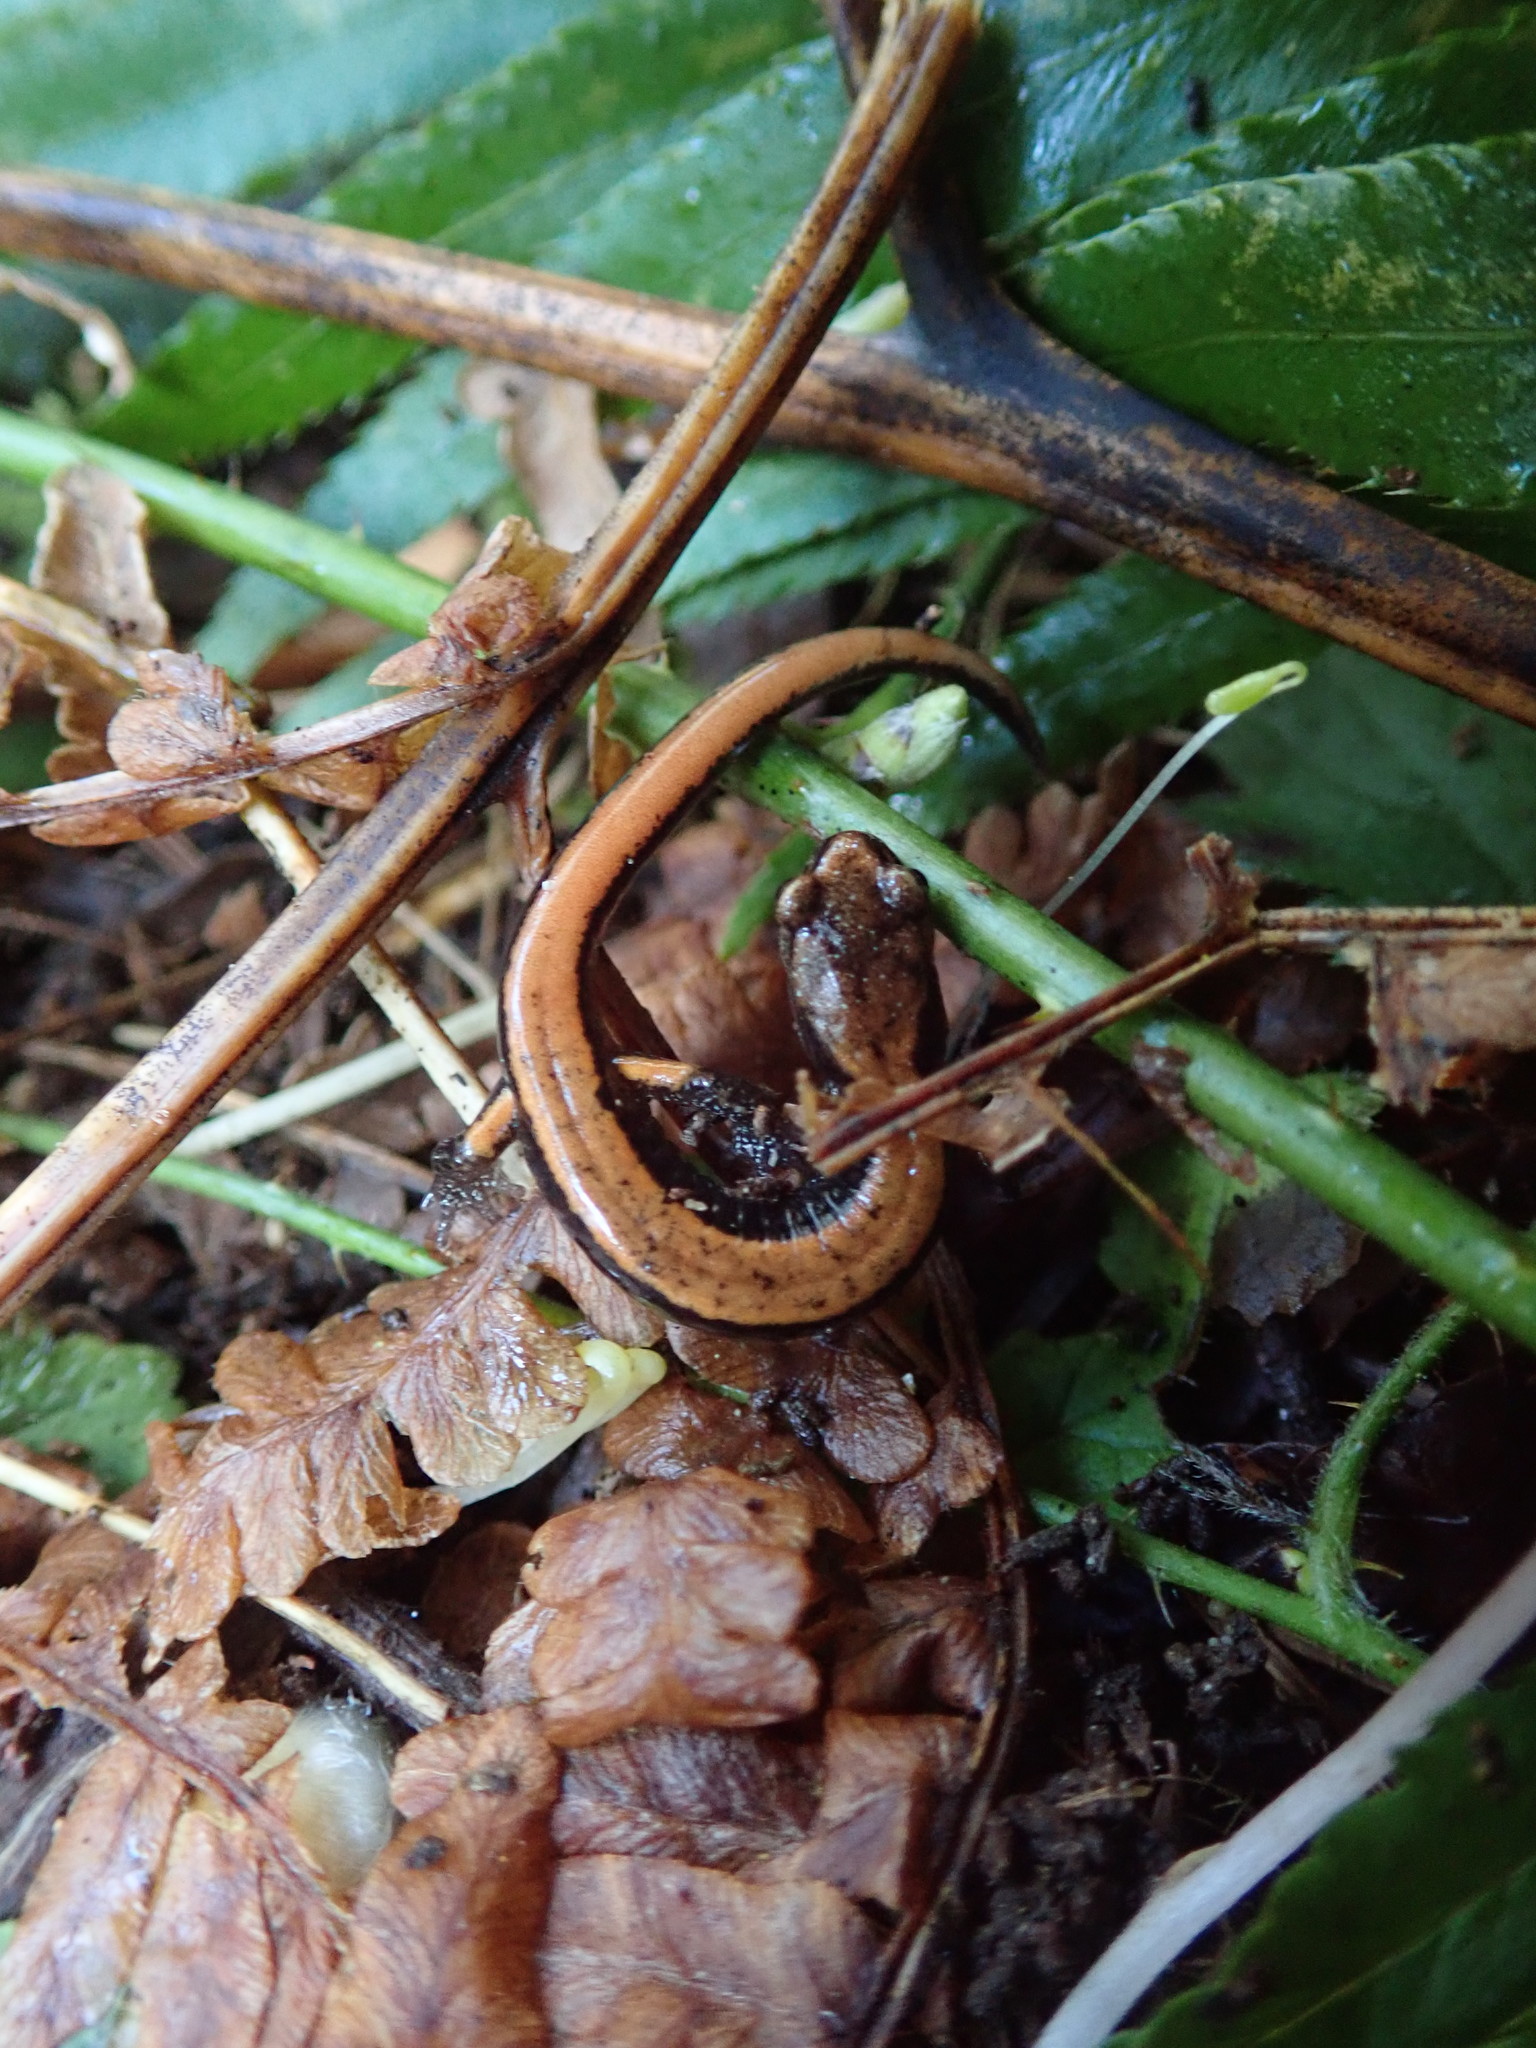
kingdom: Animalia
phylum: Chordata
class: Amphibia
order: Caudata
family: Plethodontidae
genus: Plethodon
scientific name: Plethodon vehiculum
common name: Western red-backed salamander
